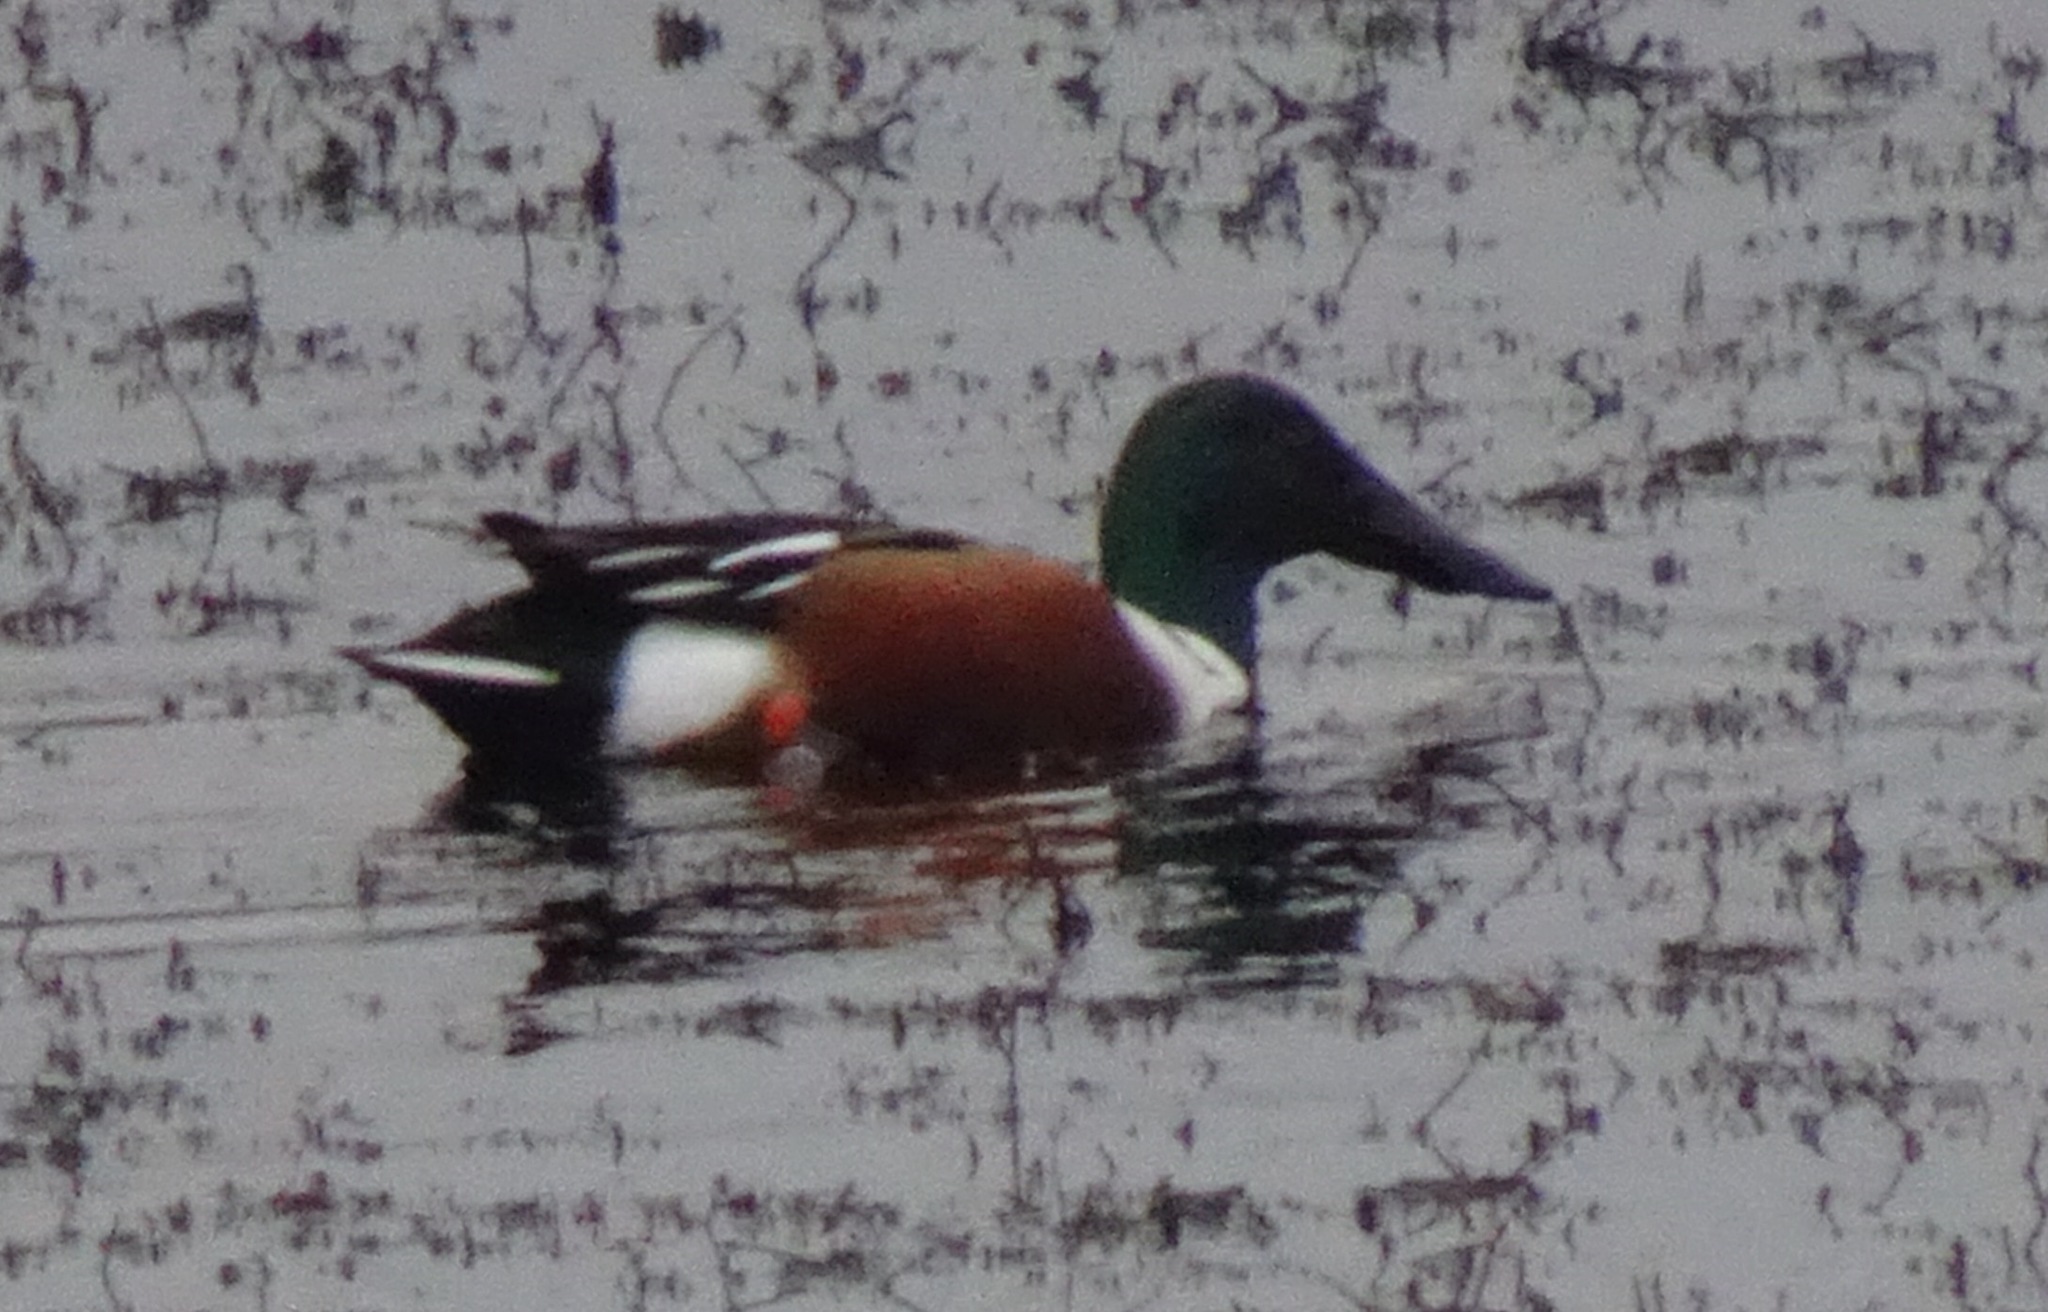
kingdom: Animalia
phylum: Chordata
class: Aves
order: Anseriformes
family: Anatidae
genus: Spatula
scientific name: Spatula clypeata
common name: Northern shoveler
